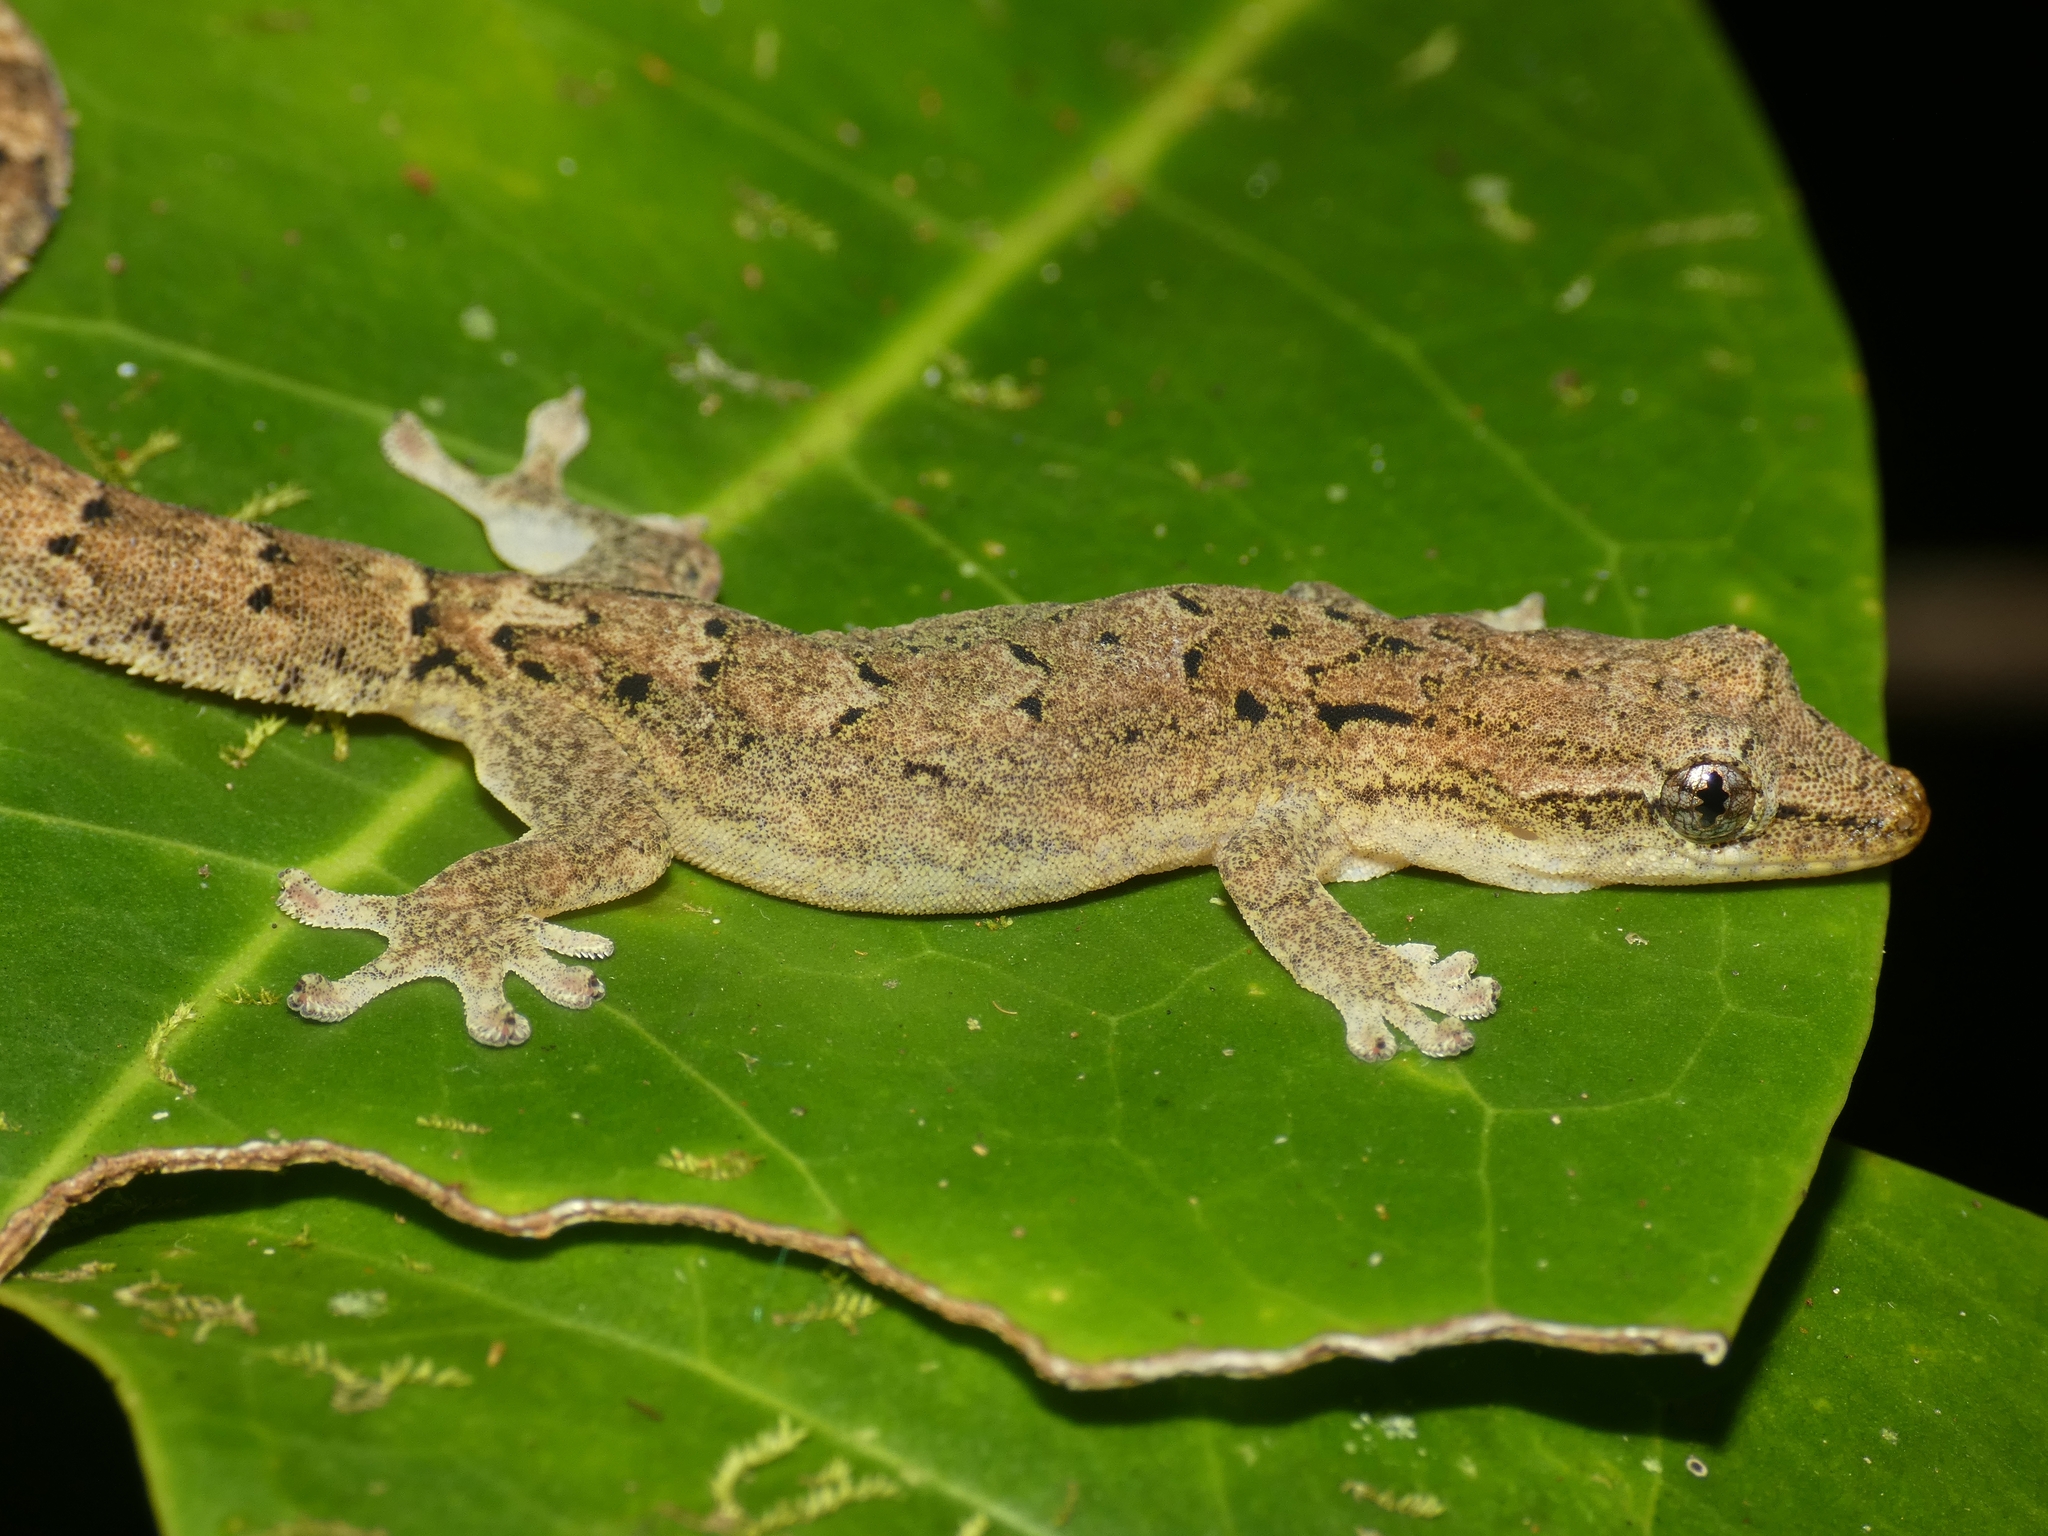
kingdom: Animalia
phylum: Chordata
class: Squamata
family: Gekkonidae
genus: Lepidodactylus
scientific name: Lepidodactylus lugubris
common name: Mourning gecko
